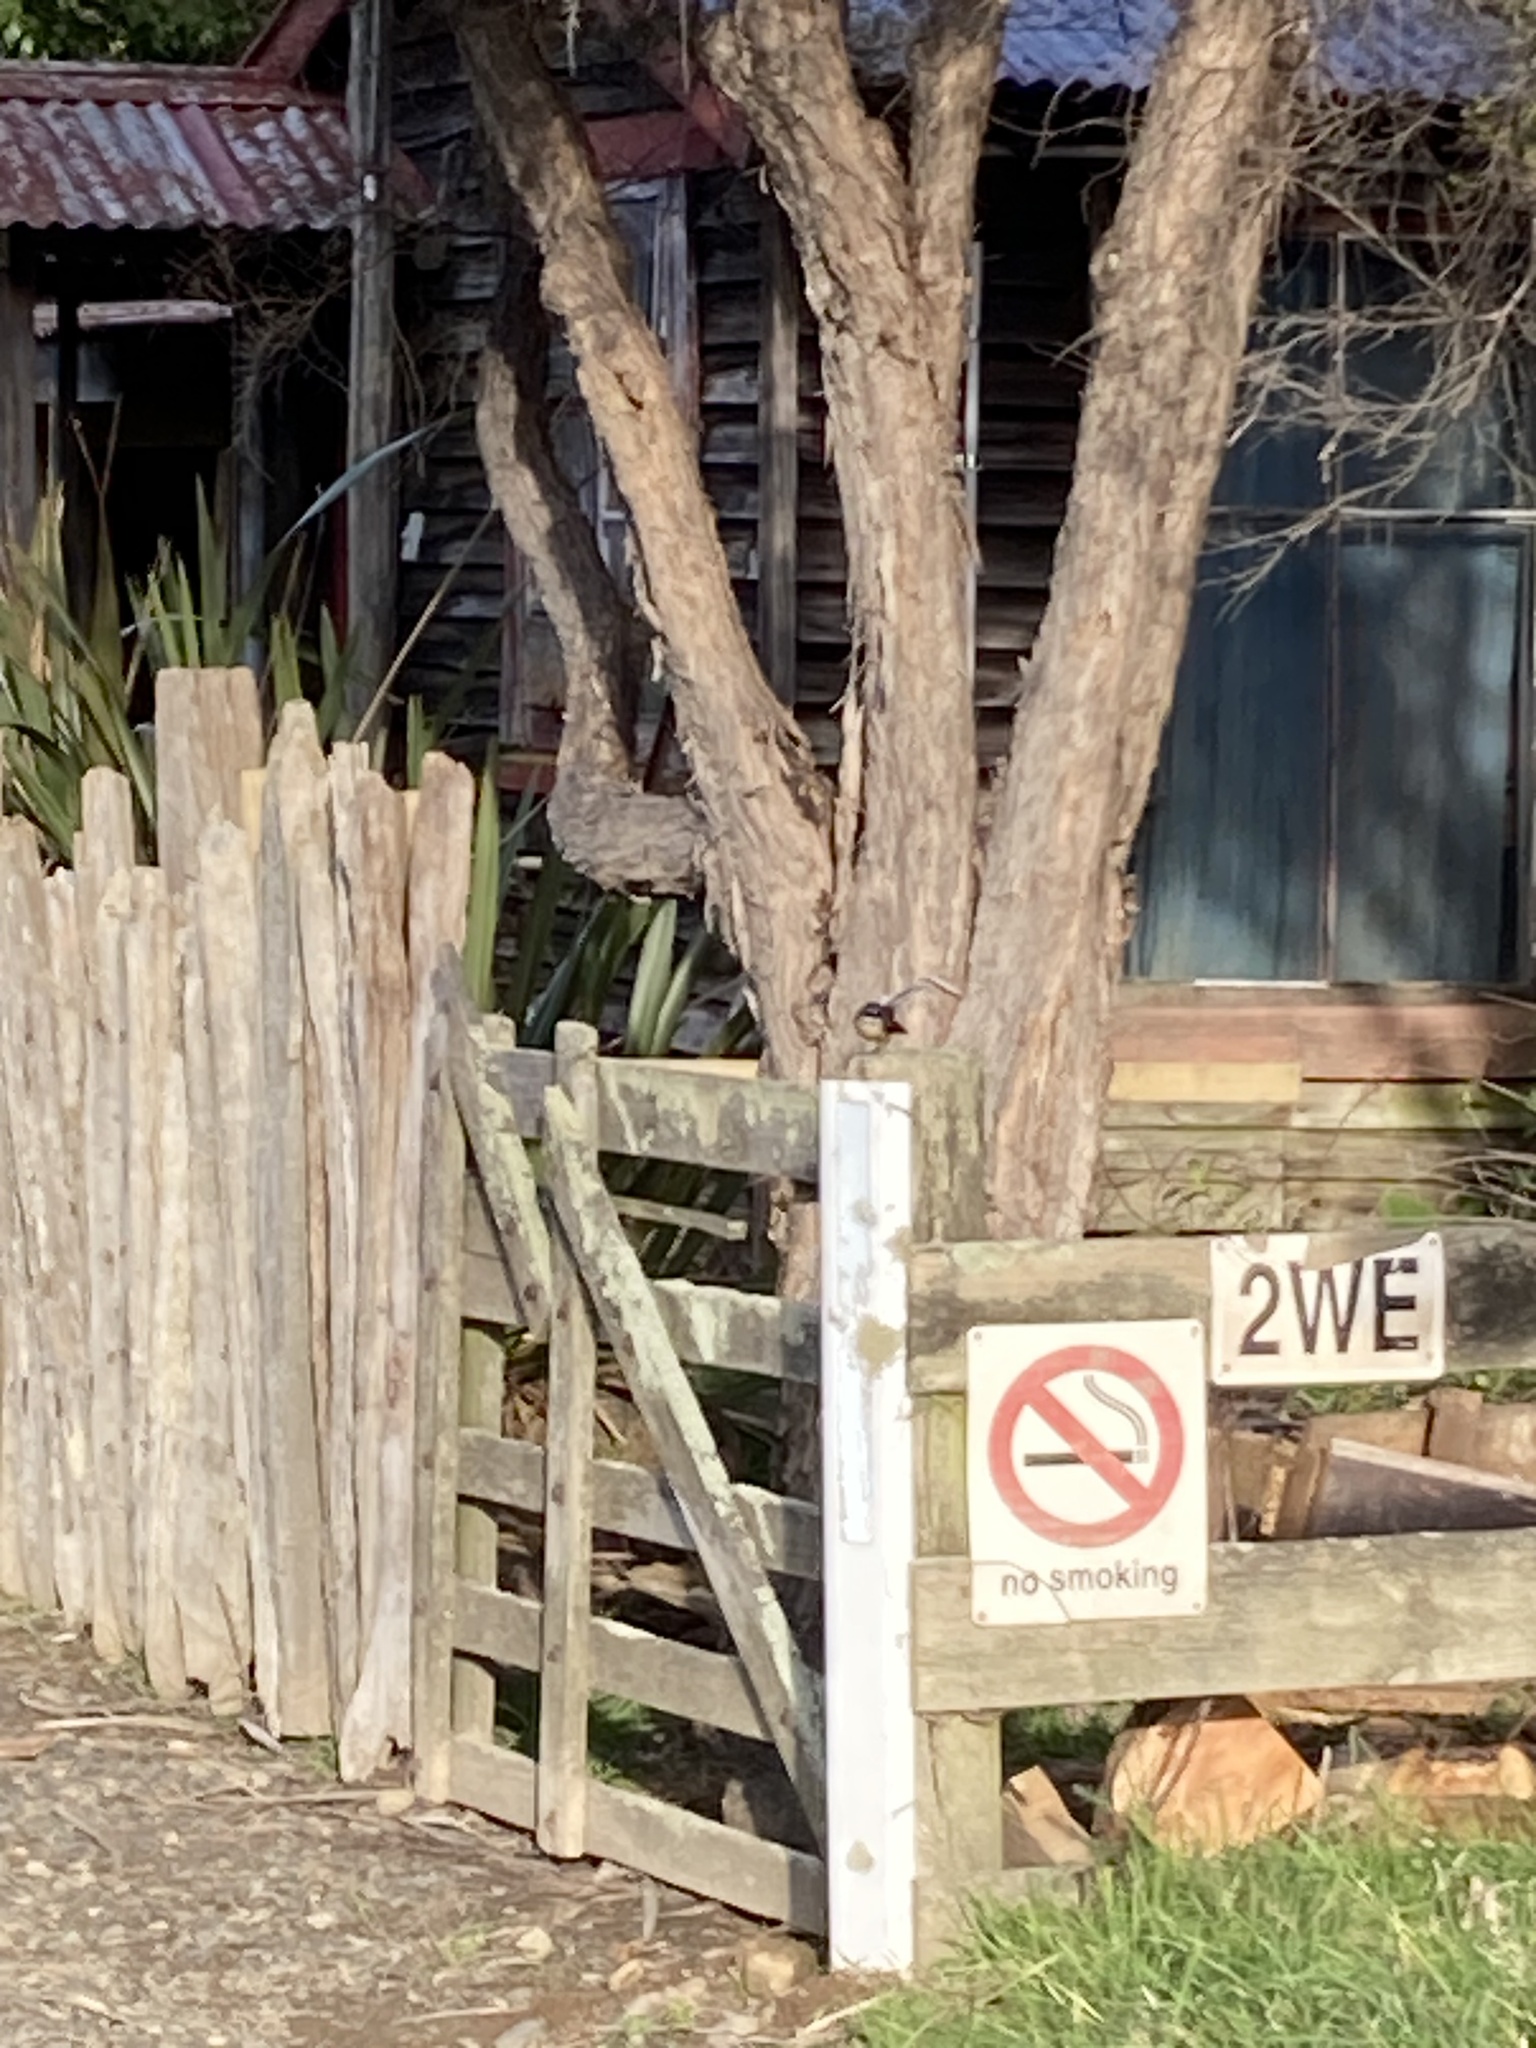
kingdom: Animalia
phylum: Chordata
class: Aves
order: Passeriformes
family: Rhipiduridae
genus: Rhipidura
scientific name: Rhipidura fuliginosa
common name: New zealand fantail
